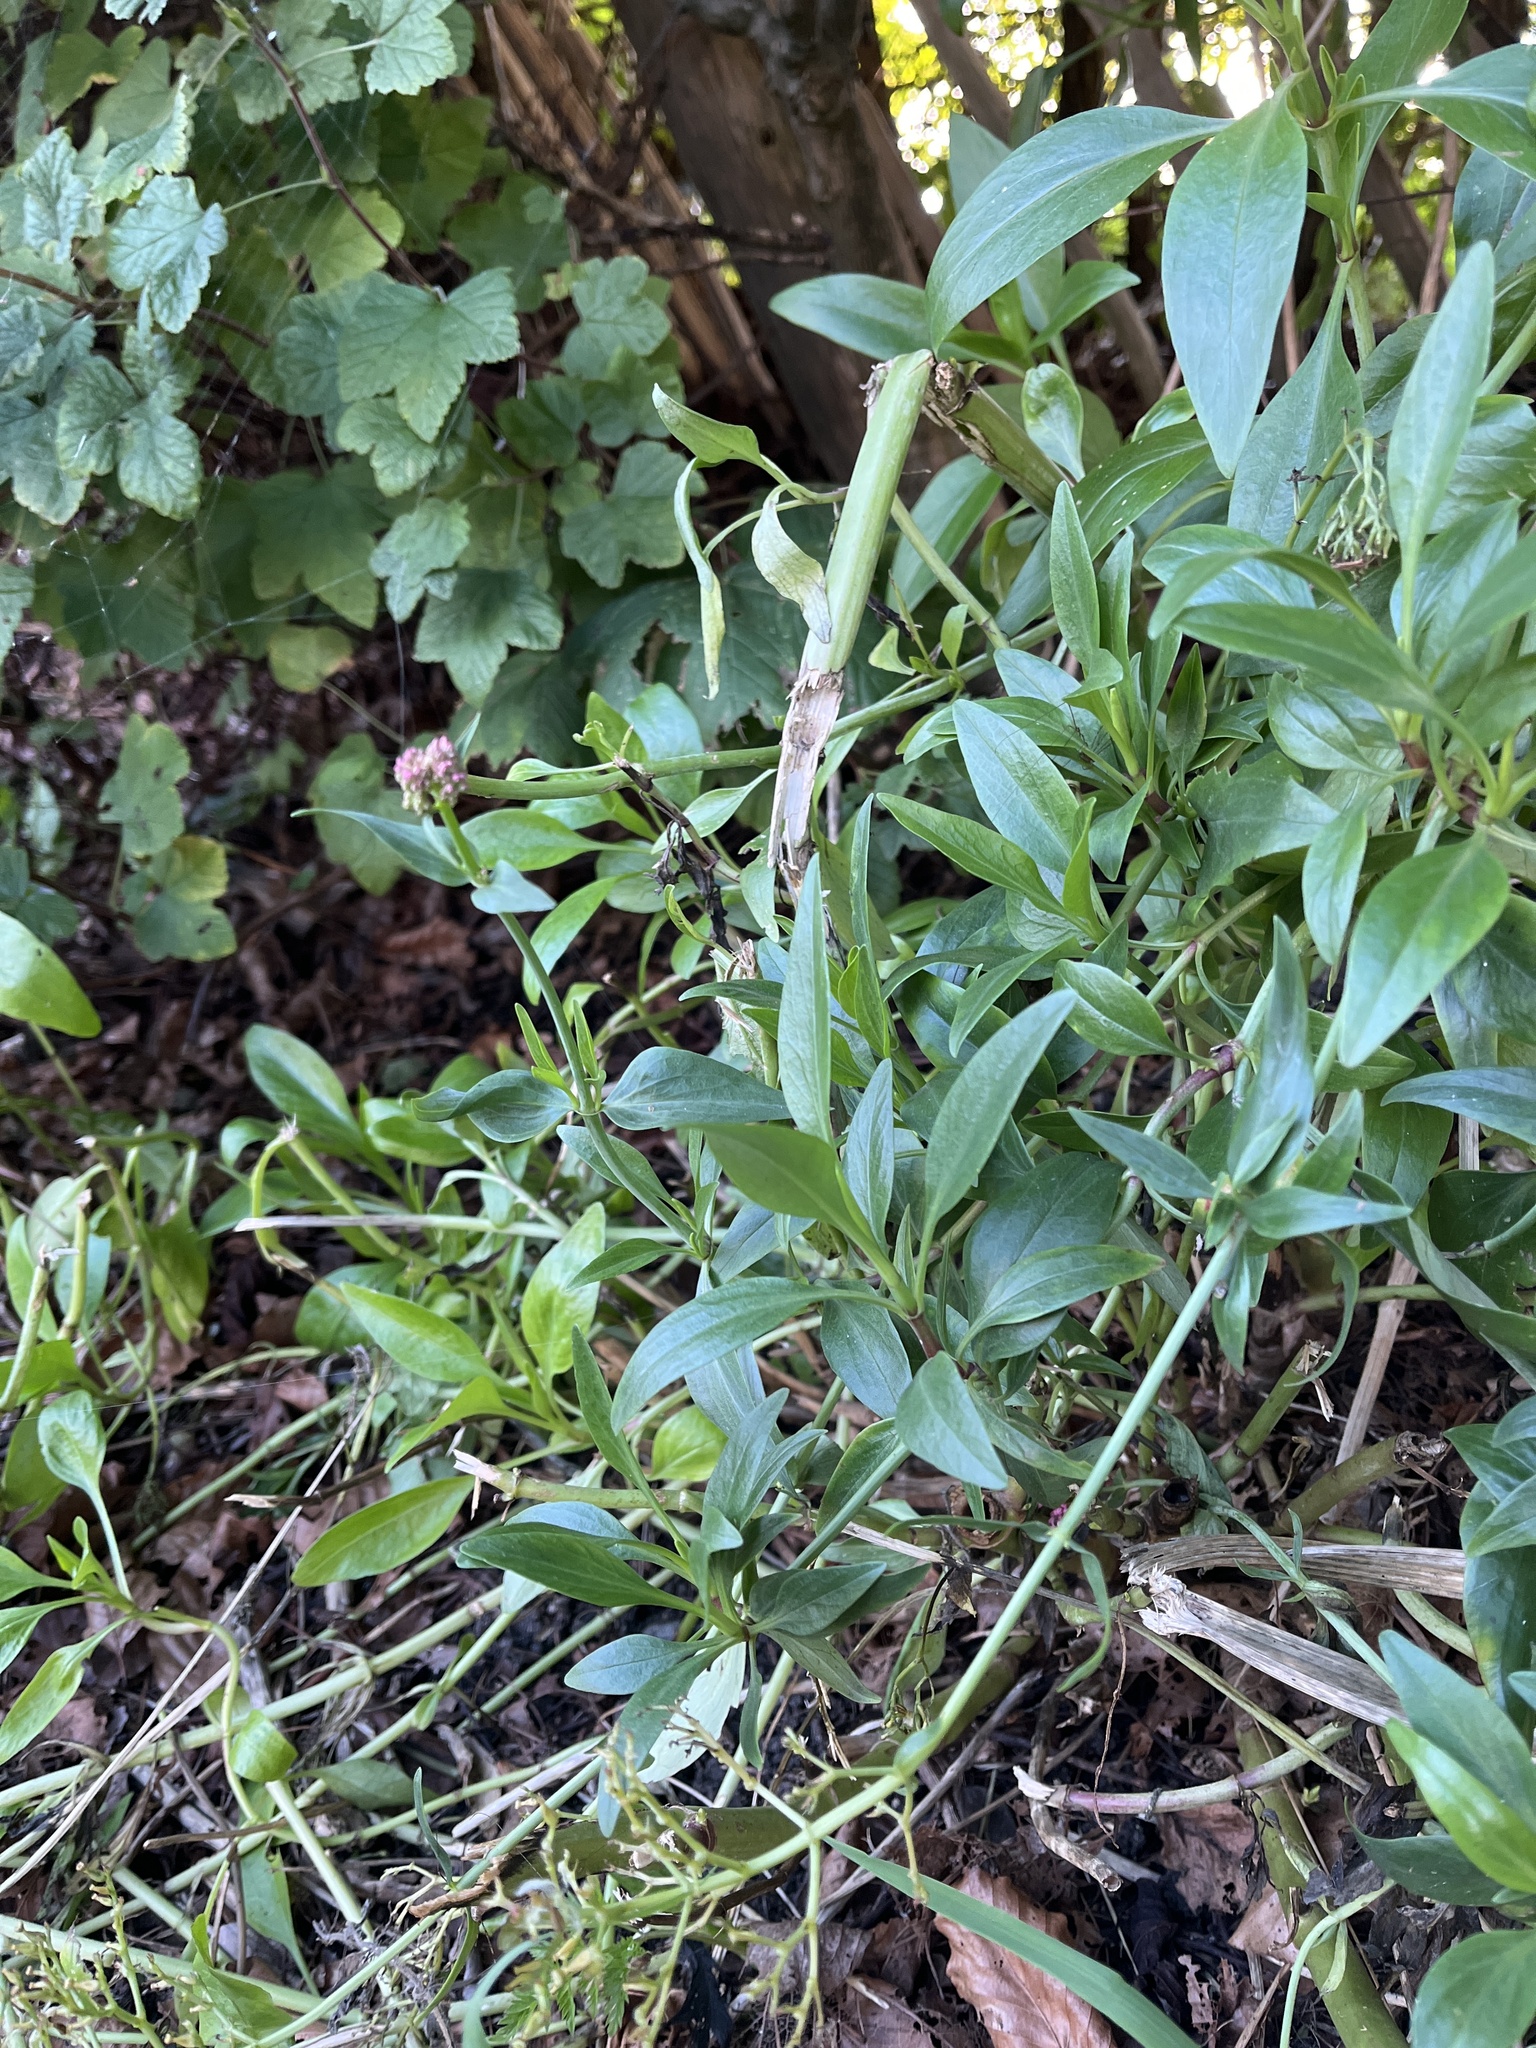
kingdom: Plantae
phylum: Tracheophyta
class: Magnoliopsida
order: Dipsacales
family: Caprifoliaceae
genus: Centranthus
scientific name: Centranthus ruber
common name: Red valerian
